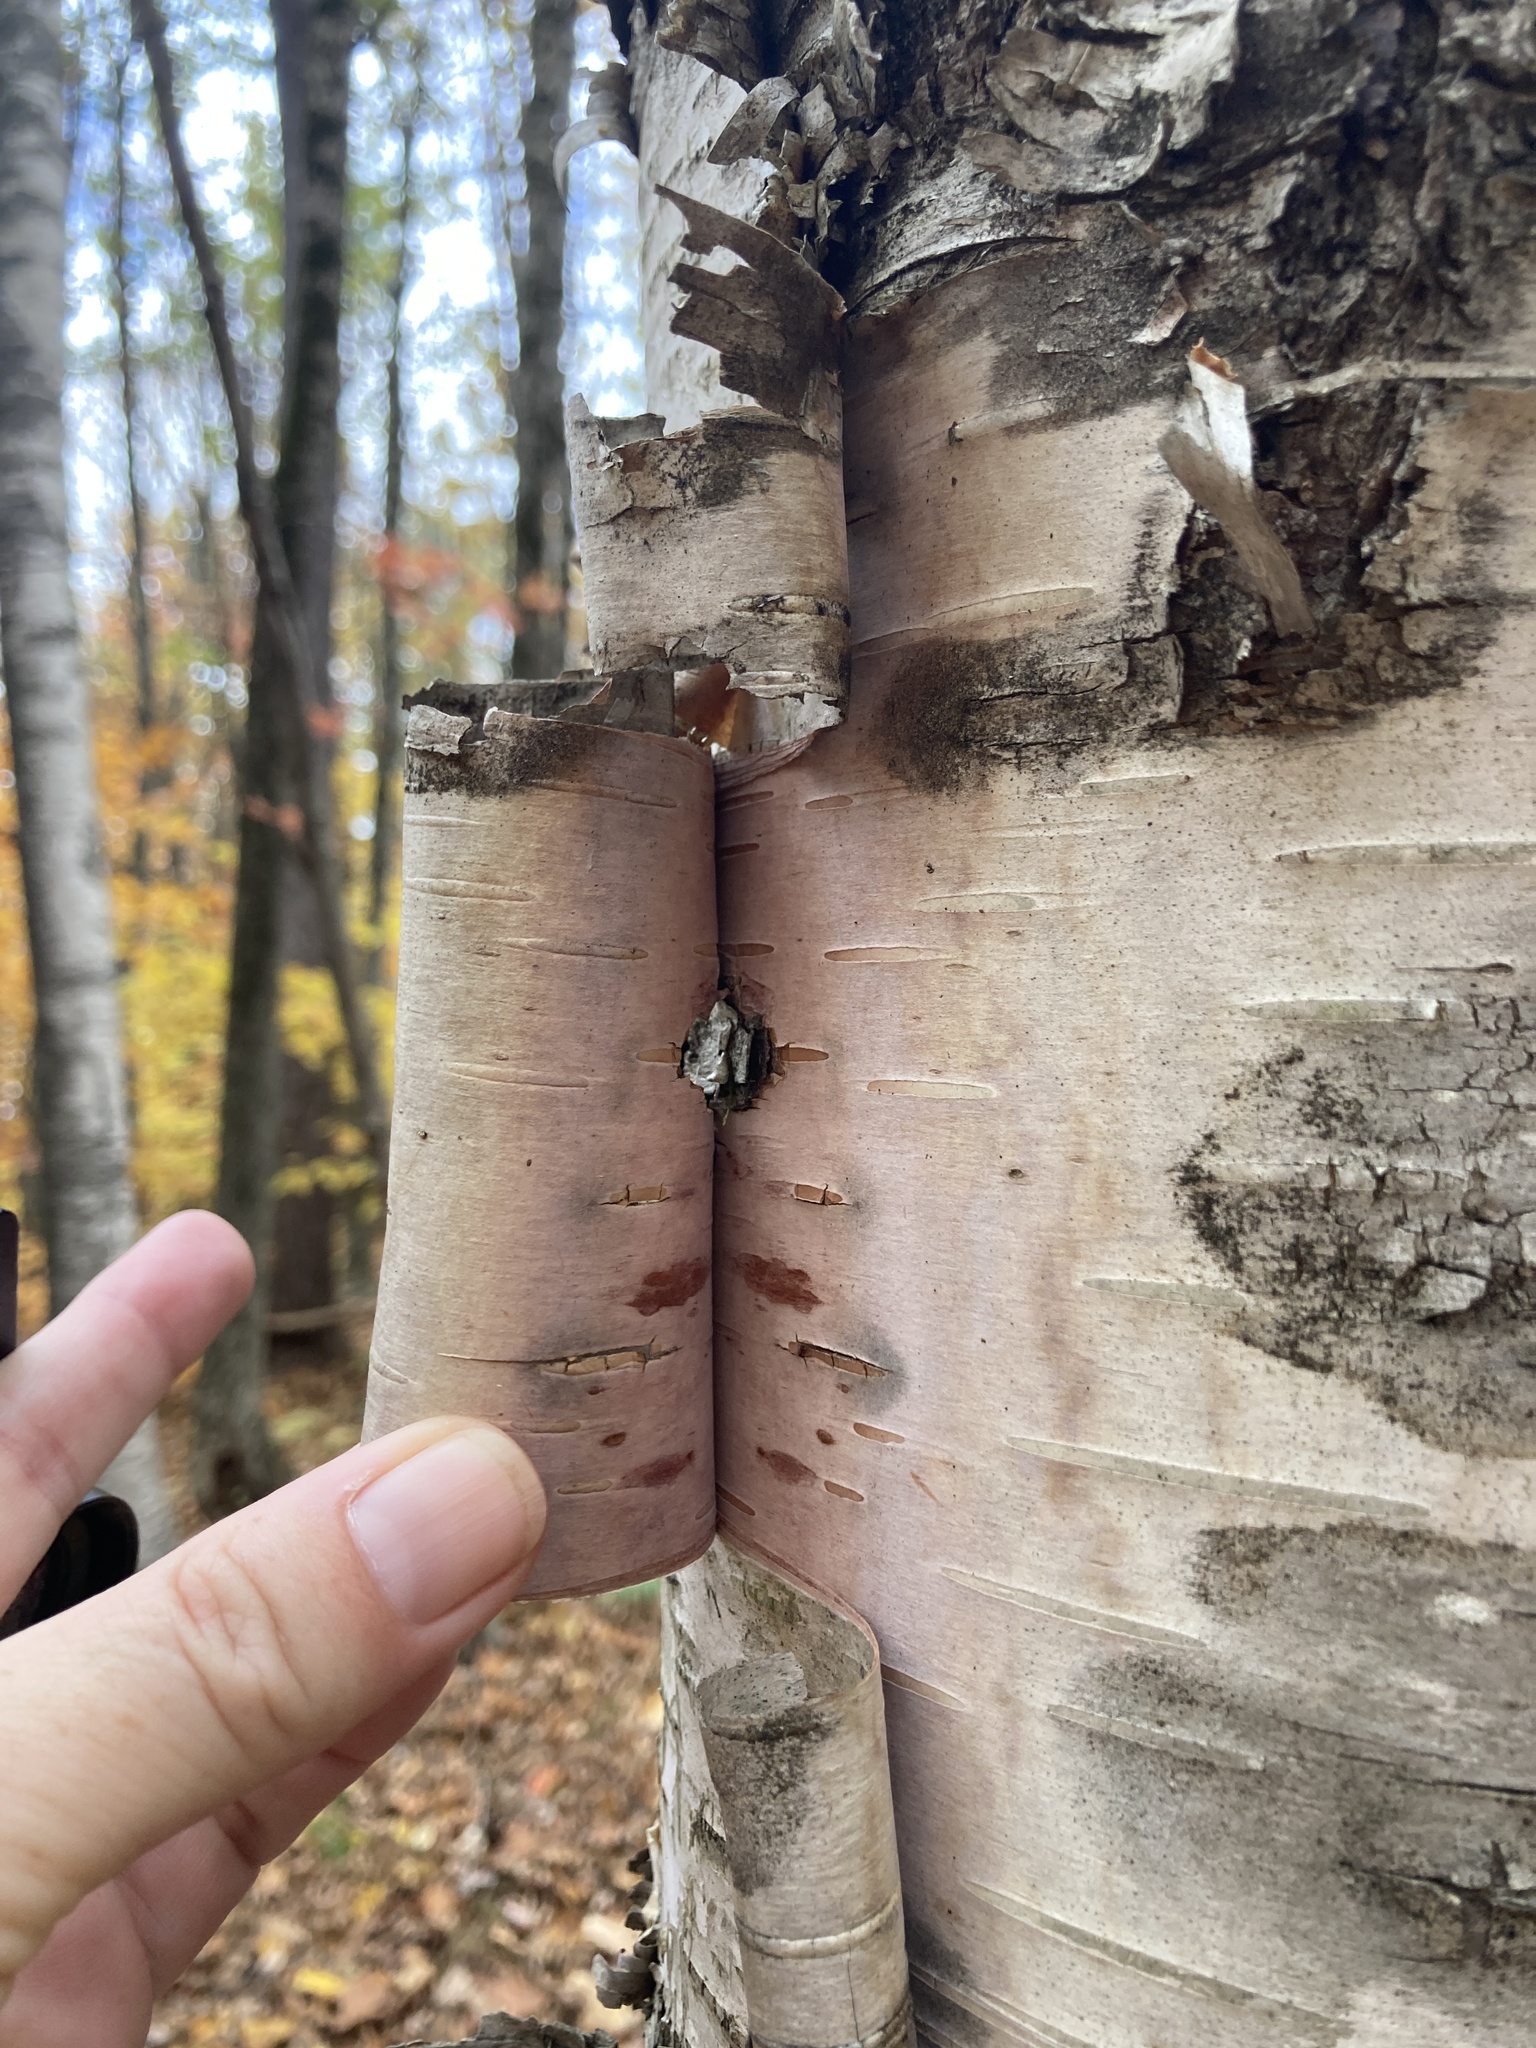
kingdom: Plantae
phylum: Tracheophyta
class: Magnoliopsida
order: Fagales
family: Betulaceae
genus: Betula
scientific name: Betula papyrifera
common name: Paper birch
